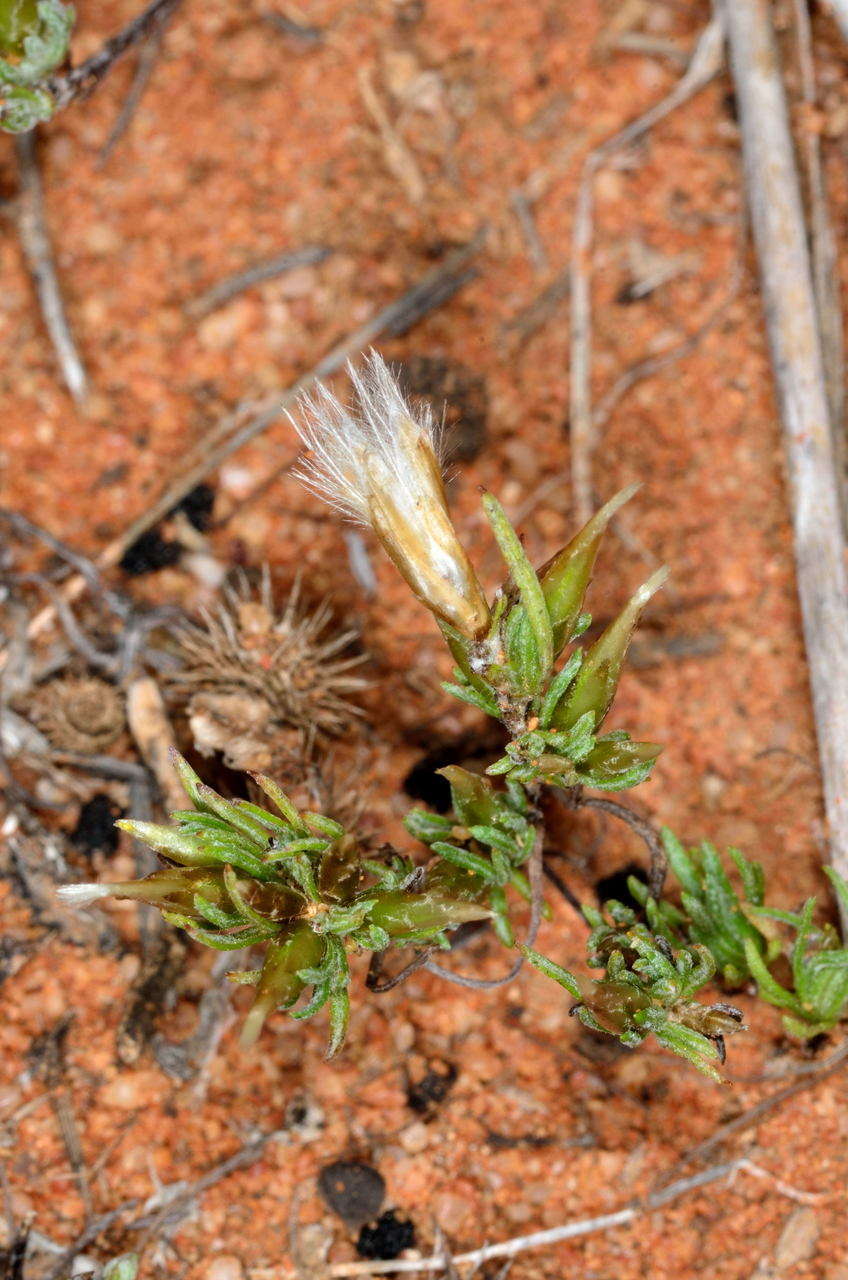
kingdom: Plantae
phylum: Tracheophyta
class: Magnoliopsida
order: Asterales
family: Asteraceae
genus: Rhodanthe
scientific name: Rhodanthe pygmaea
